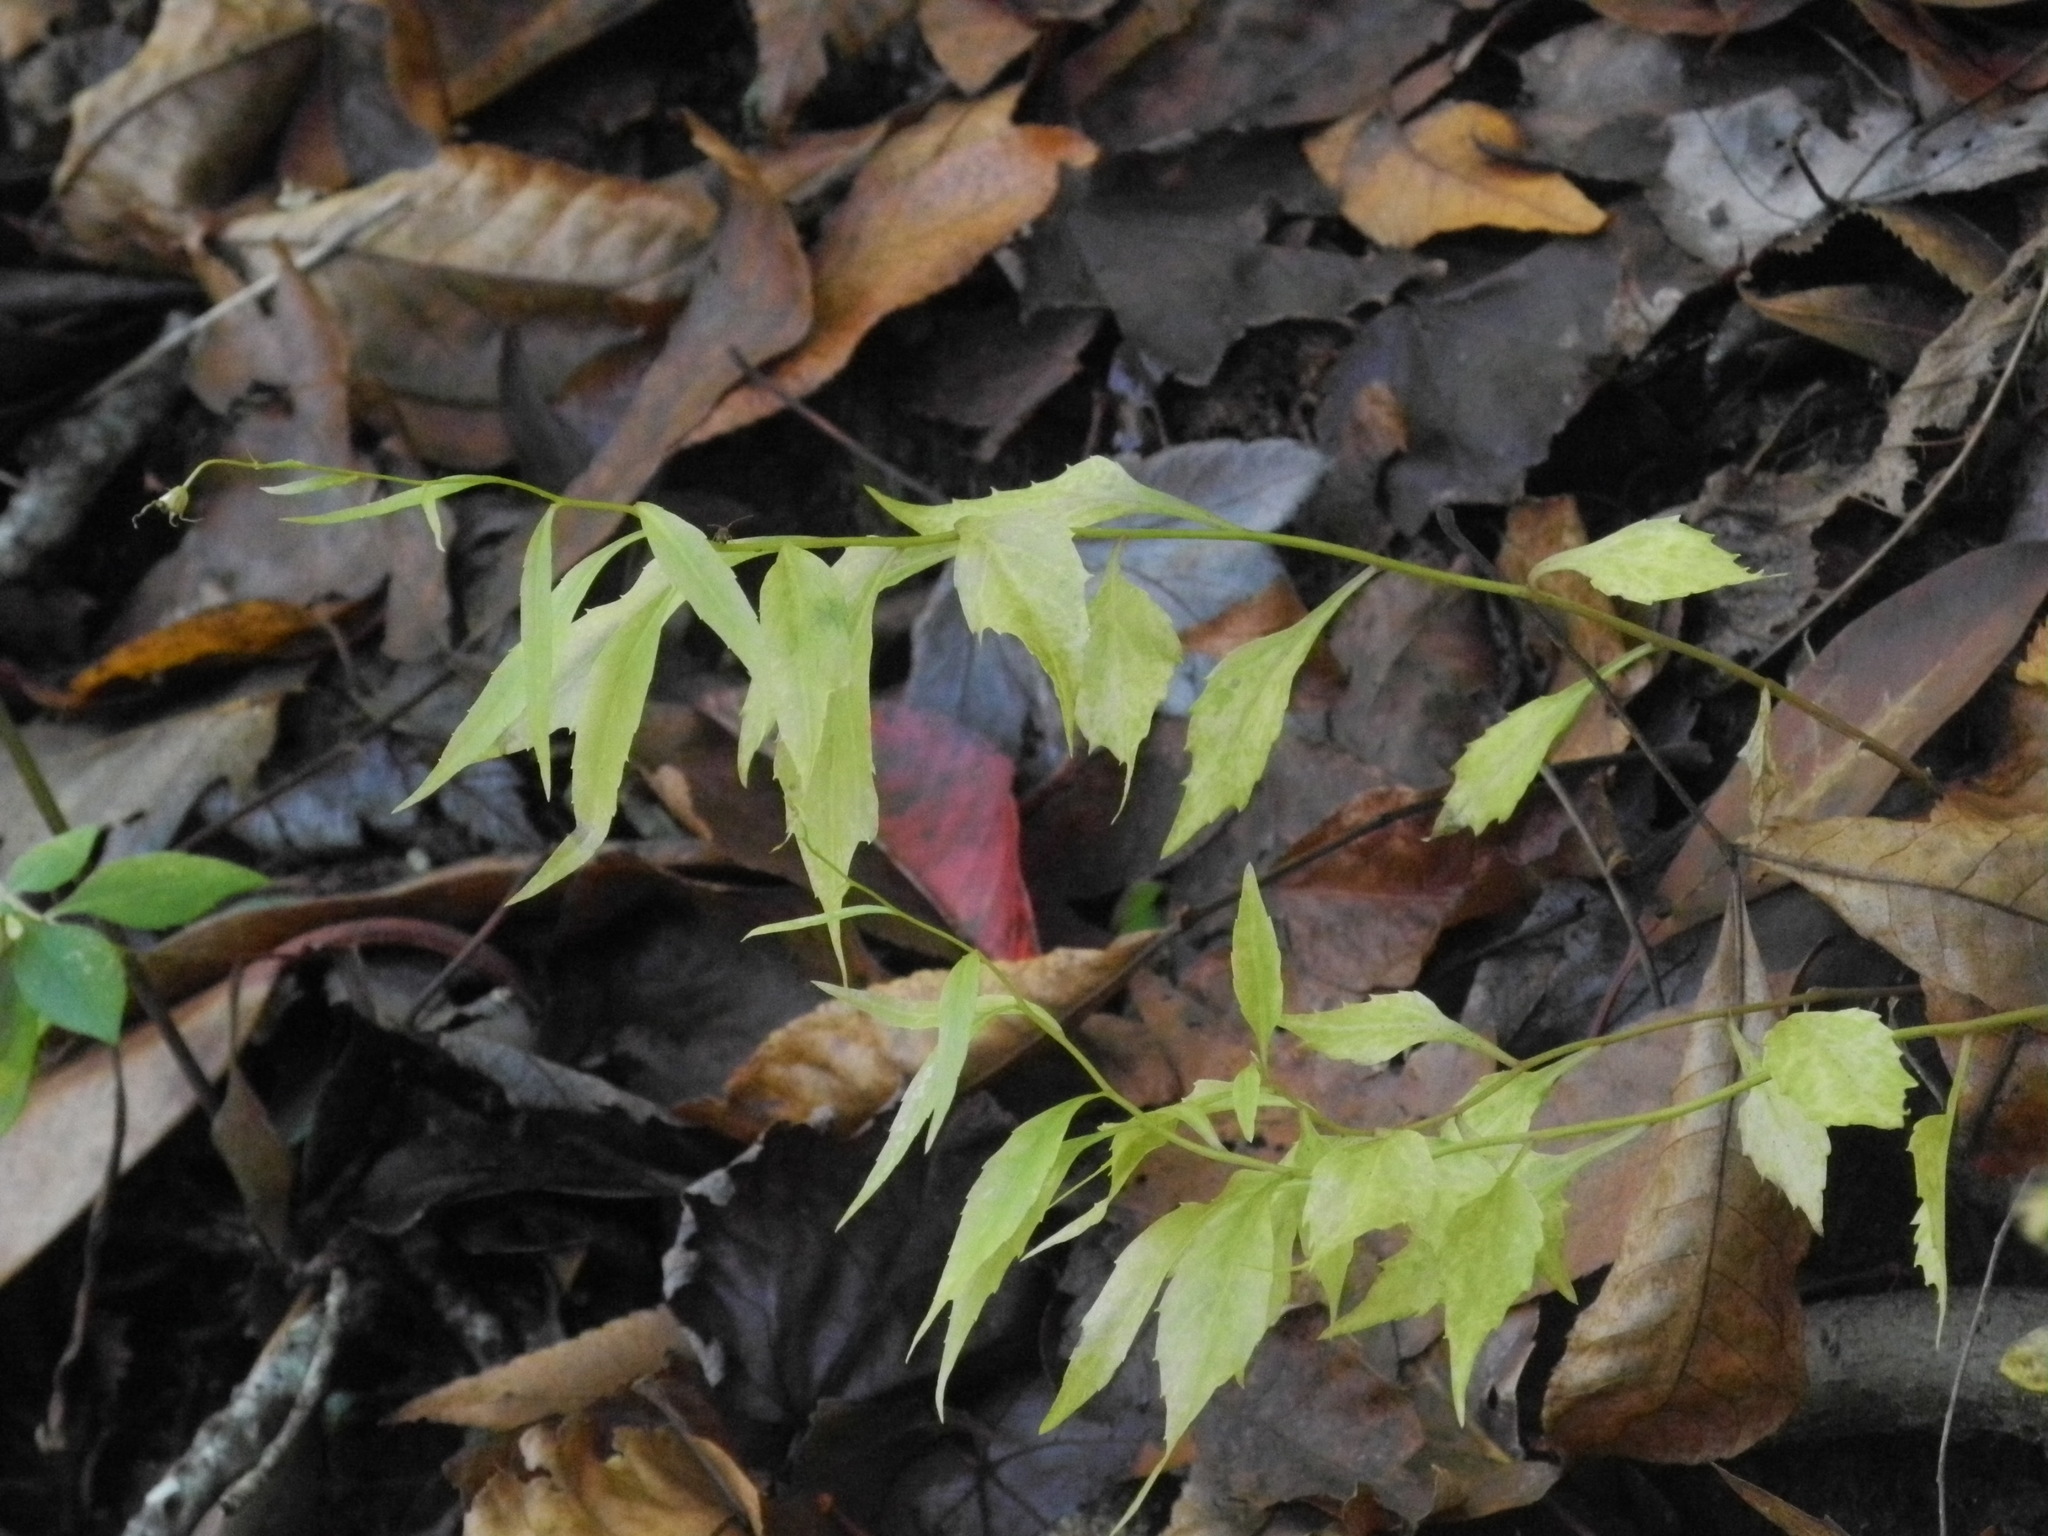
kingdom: Plantae
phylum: Tracheophyta
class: Magnoliopsida
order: Asterales
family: Campanulaceae
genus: Campanula
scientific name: Campanula divaricata
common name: Appalachian bellflower
